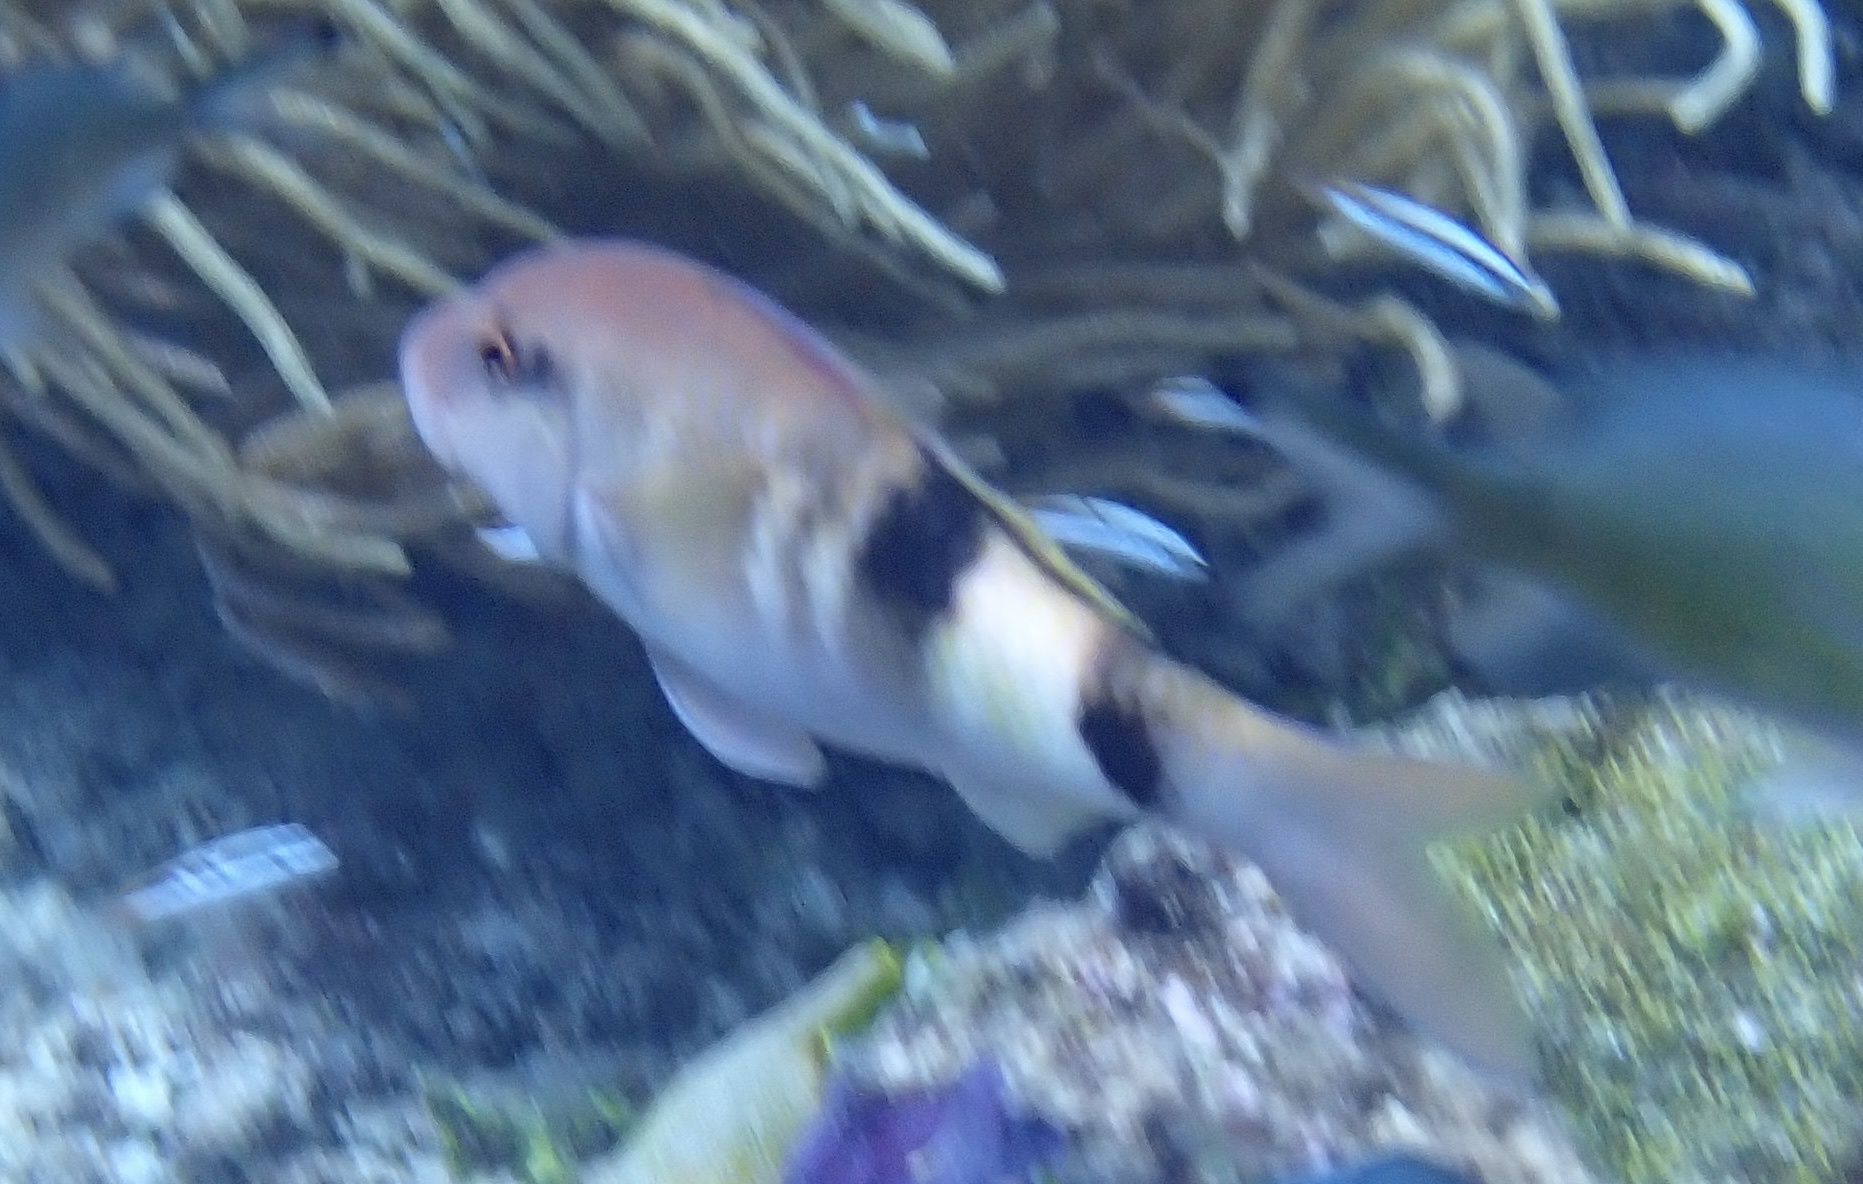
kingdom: Animalia
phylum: Chordata
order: Perciformes
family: Mullidae
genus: Parupeneus
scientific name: Parupeneus multifasciatus
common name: Manybar goatfish
